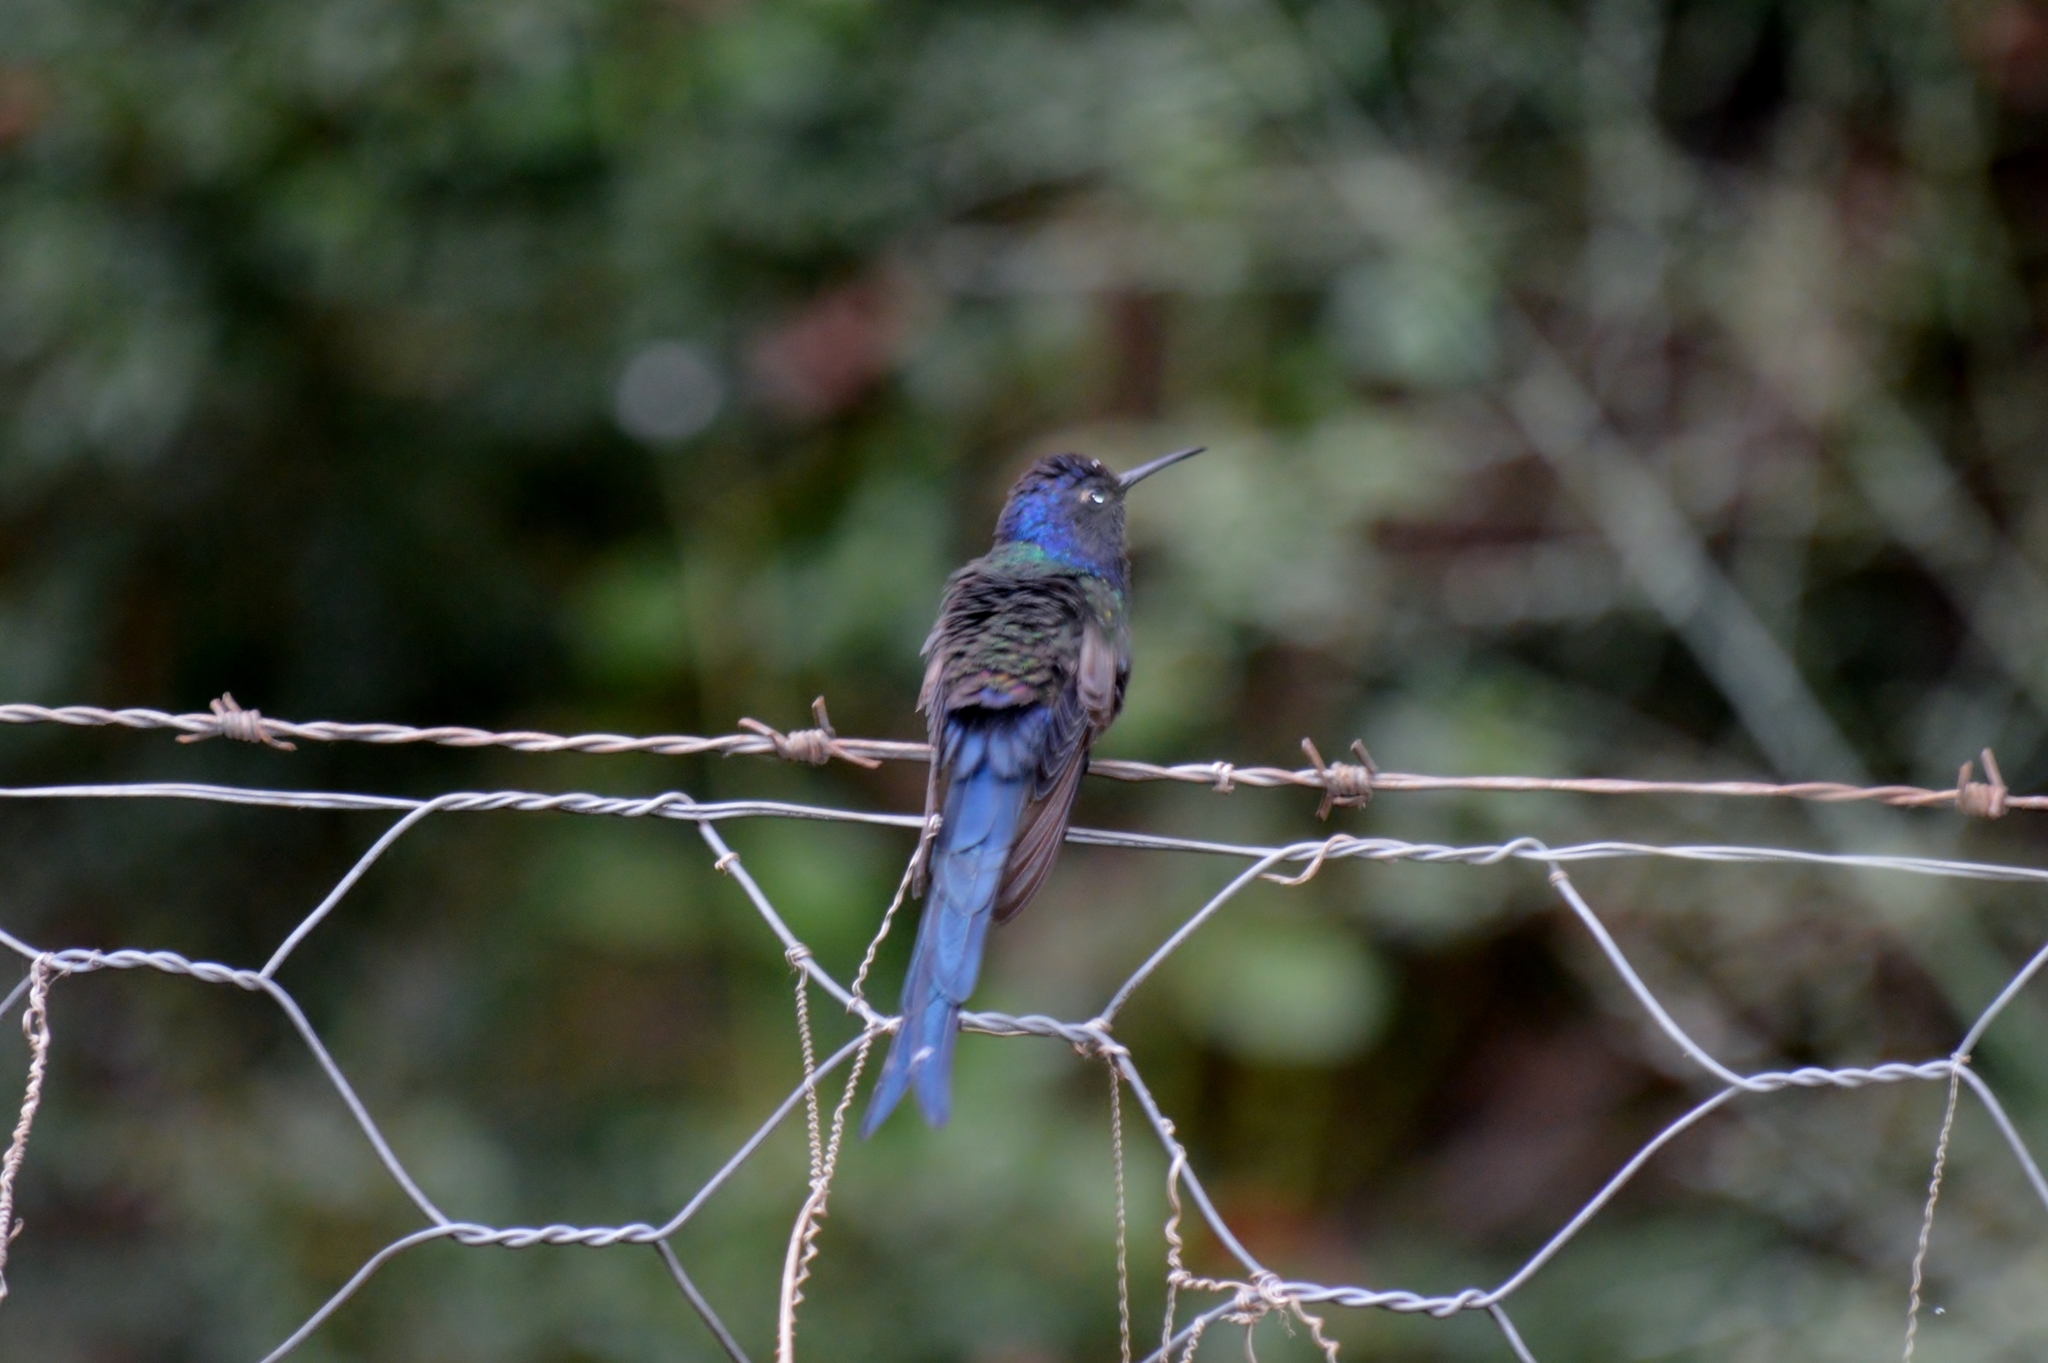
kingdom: Animalia
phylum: Chordata
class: Aves
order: Apodiformes
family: Trochilidae
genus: Eupetomena
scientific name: Eupetomena macroura
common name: Swallow-tailed hummingbird
